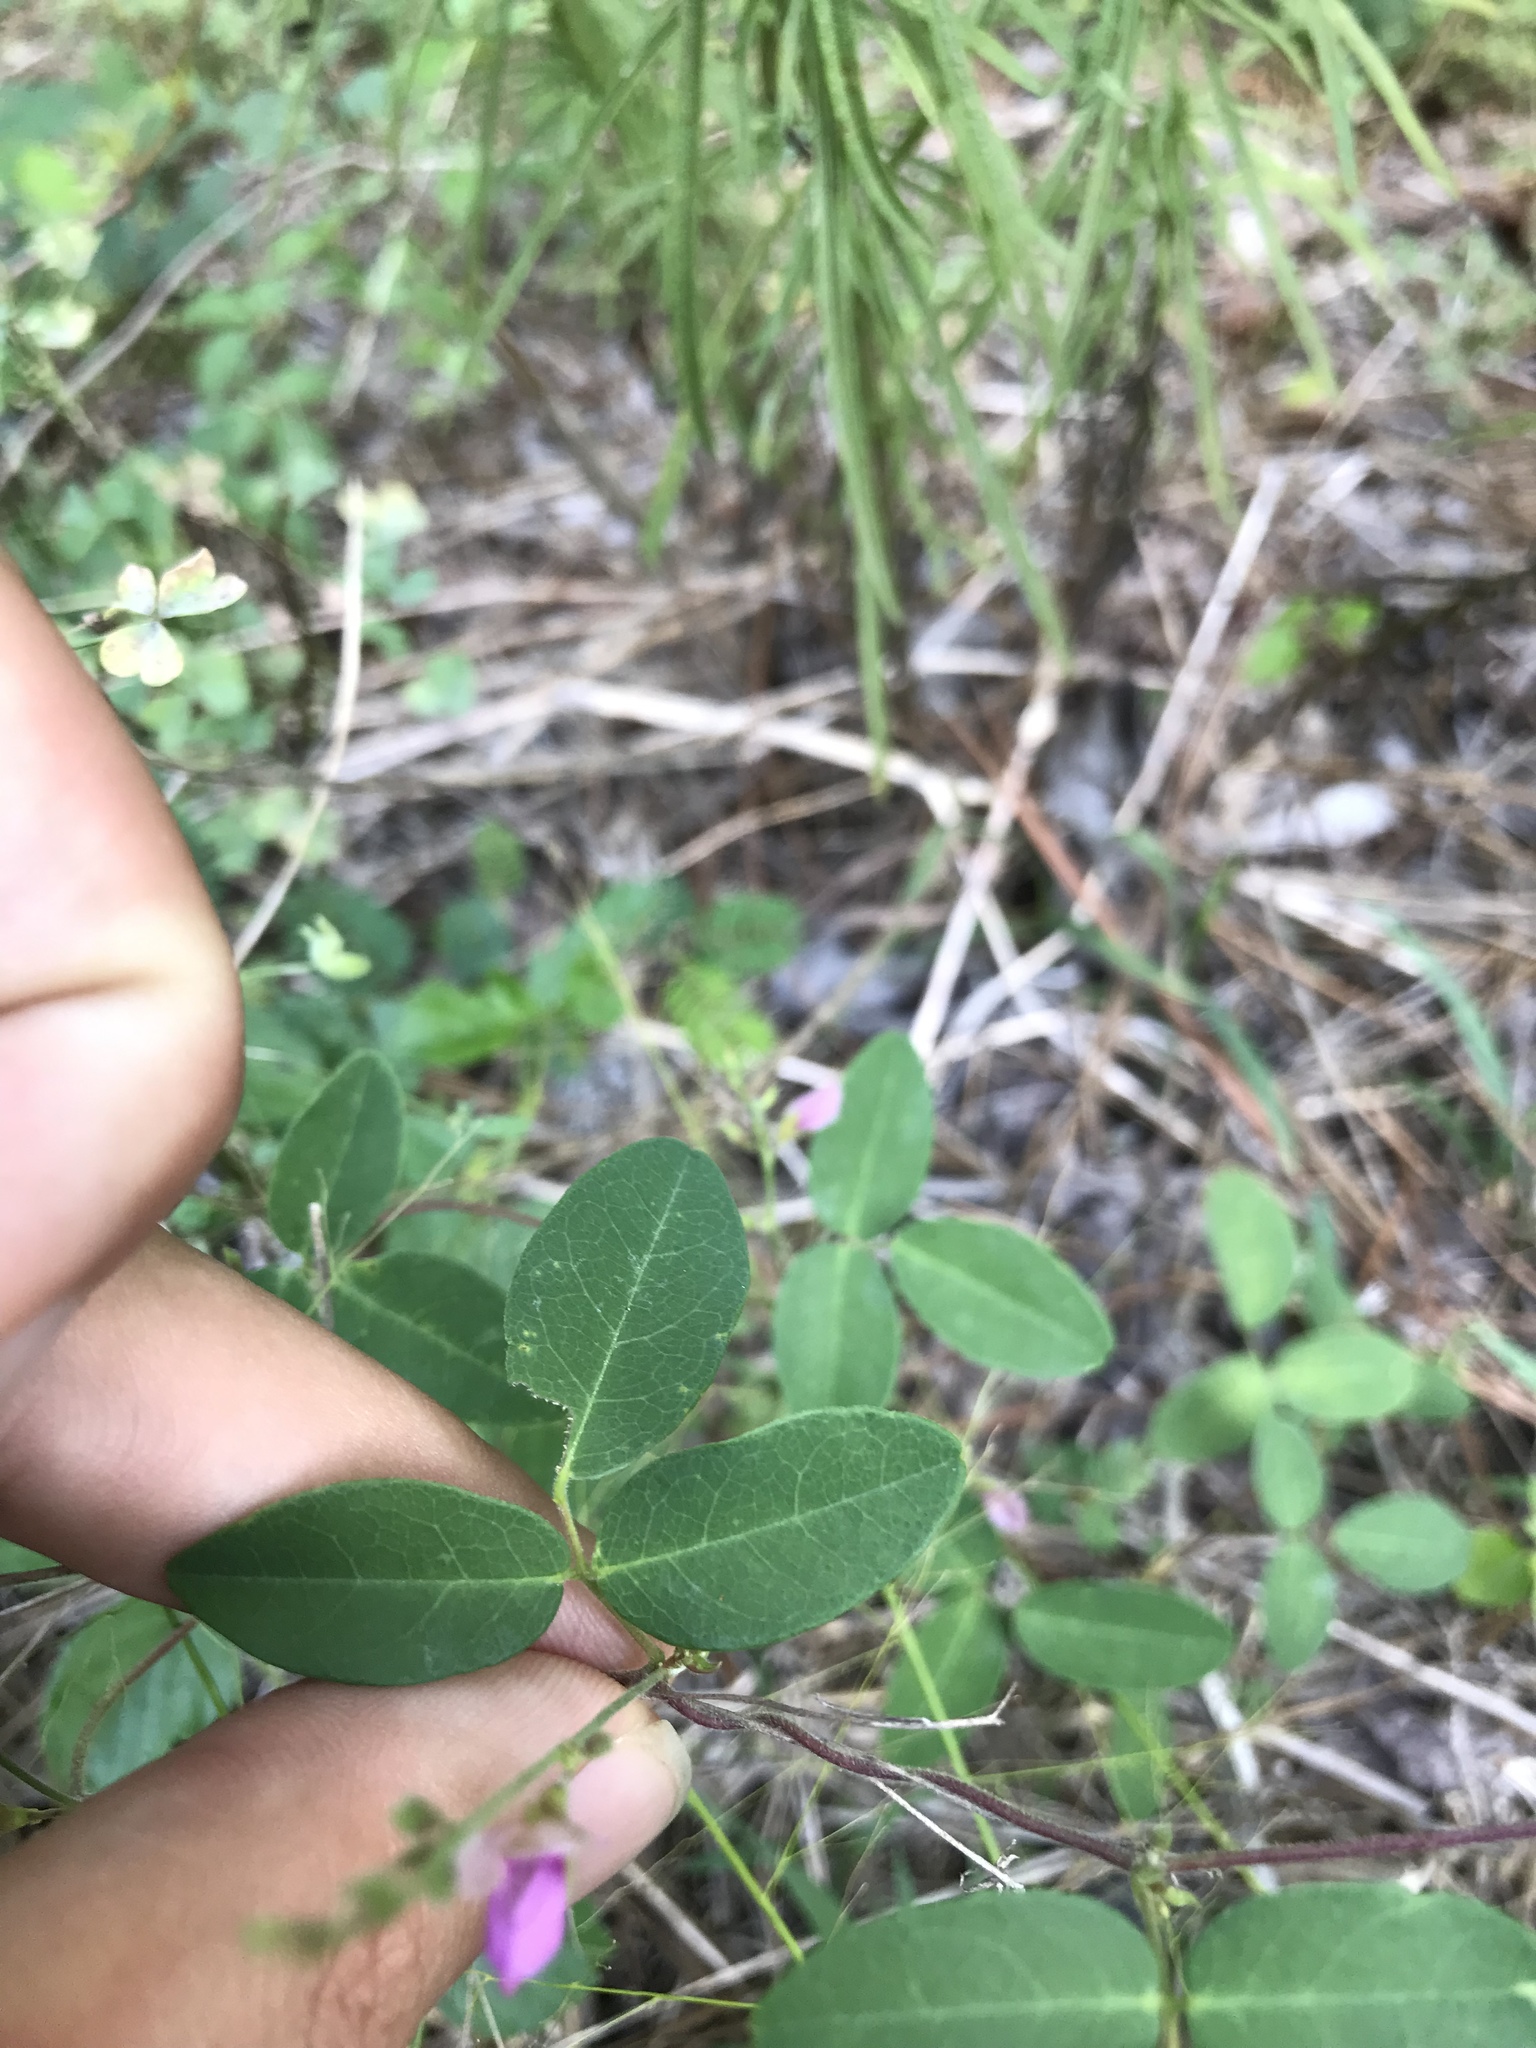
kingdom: Plantae
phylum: Tracheophyta
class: Magnoliopsida
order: Fabales
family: Fabaceae
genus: Galactia
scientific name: Galactia regularis
